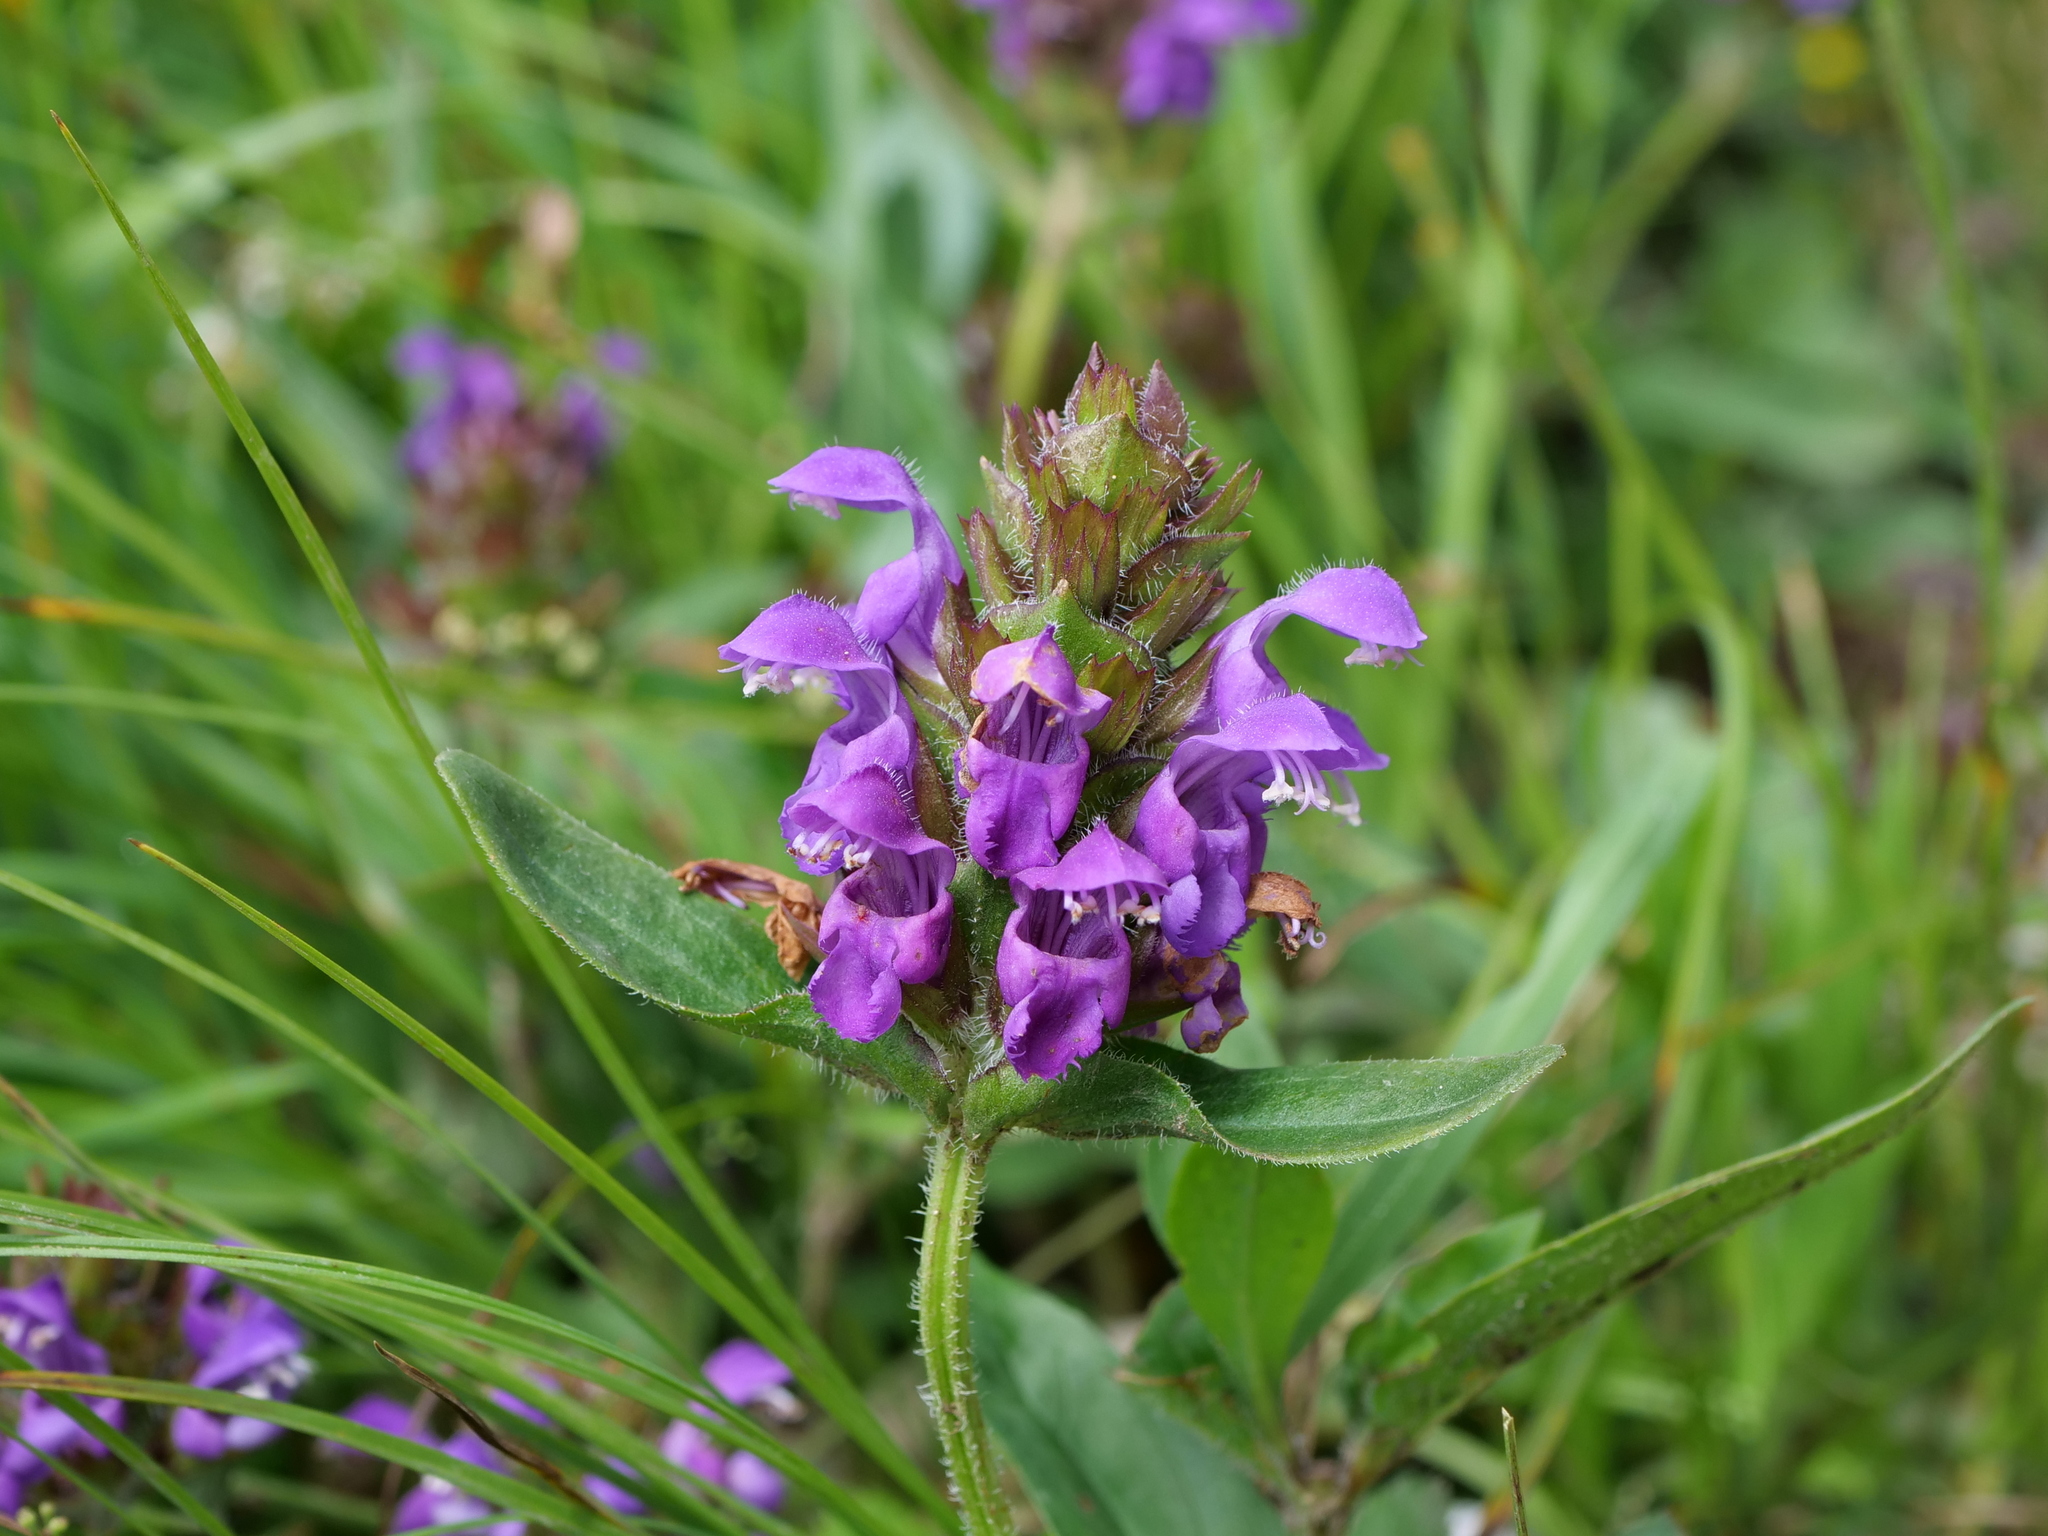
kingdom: Plantae
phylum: Tracheophyta
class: Magnoliopsida
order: Lamiales
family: Lamiaceae
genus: Prunella
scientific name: Prunella grandiflora
